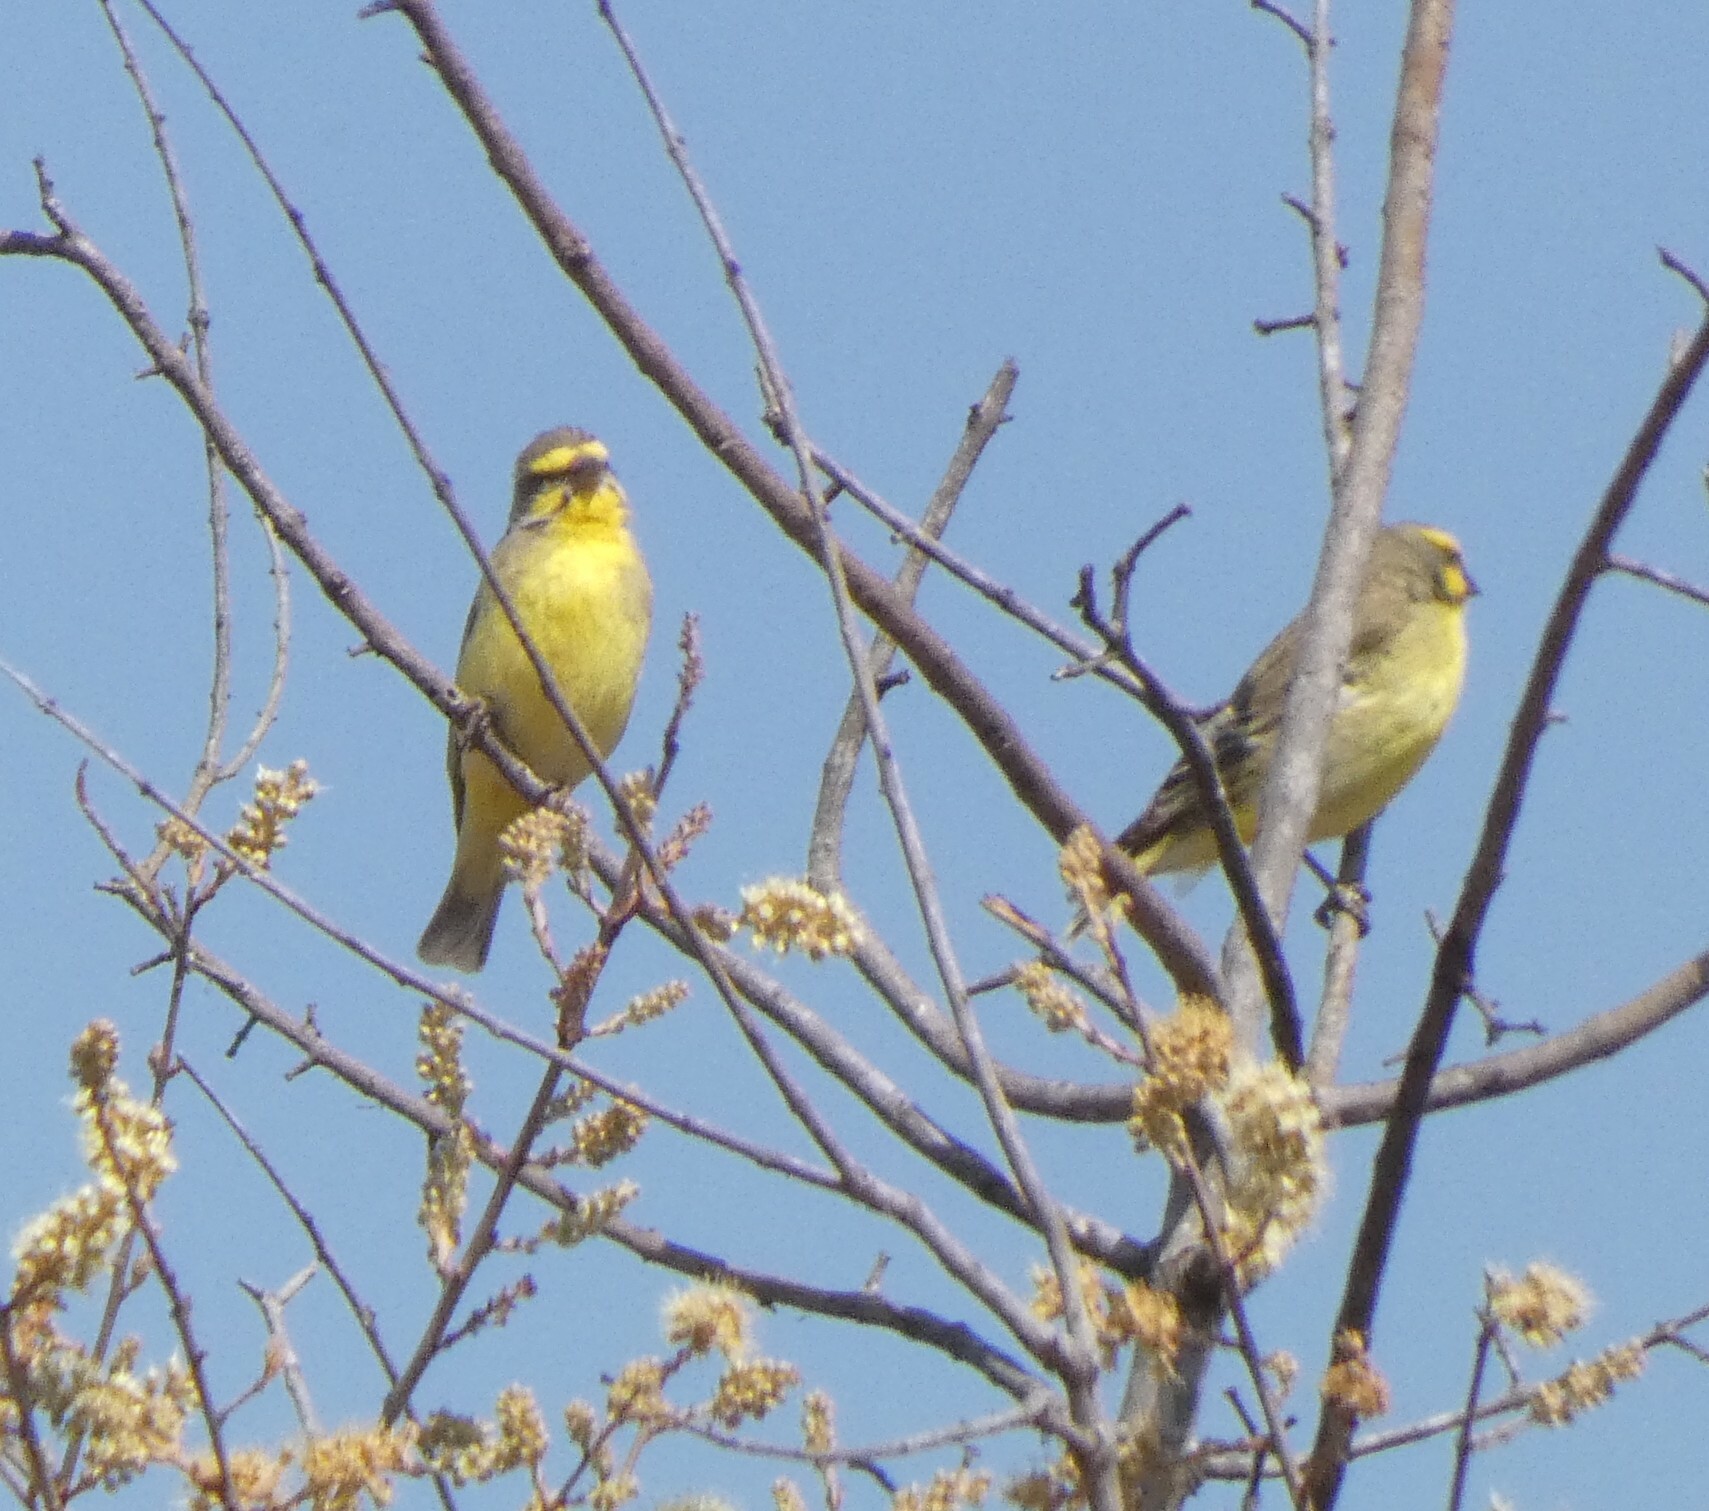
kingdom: Animalia
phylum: Chordata
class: Aves
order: Passeriformes
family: Fringillidae
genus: Crithagra
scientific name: Crithagra mozambica
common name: Yellow-fronted canary
